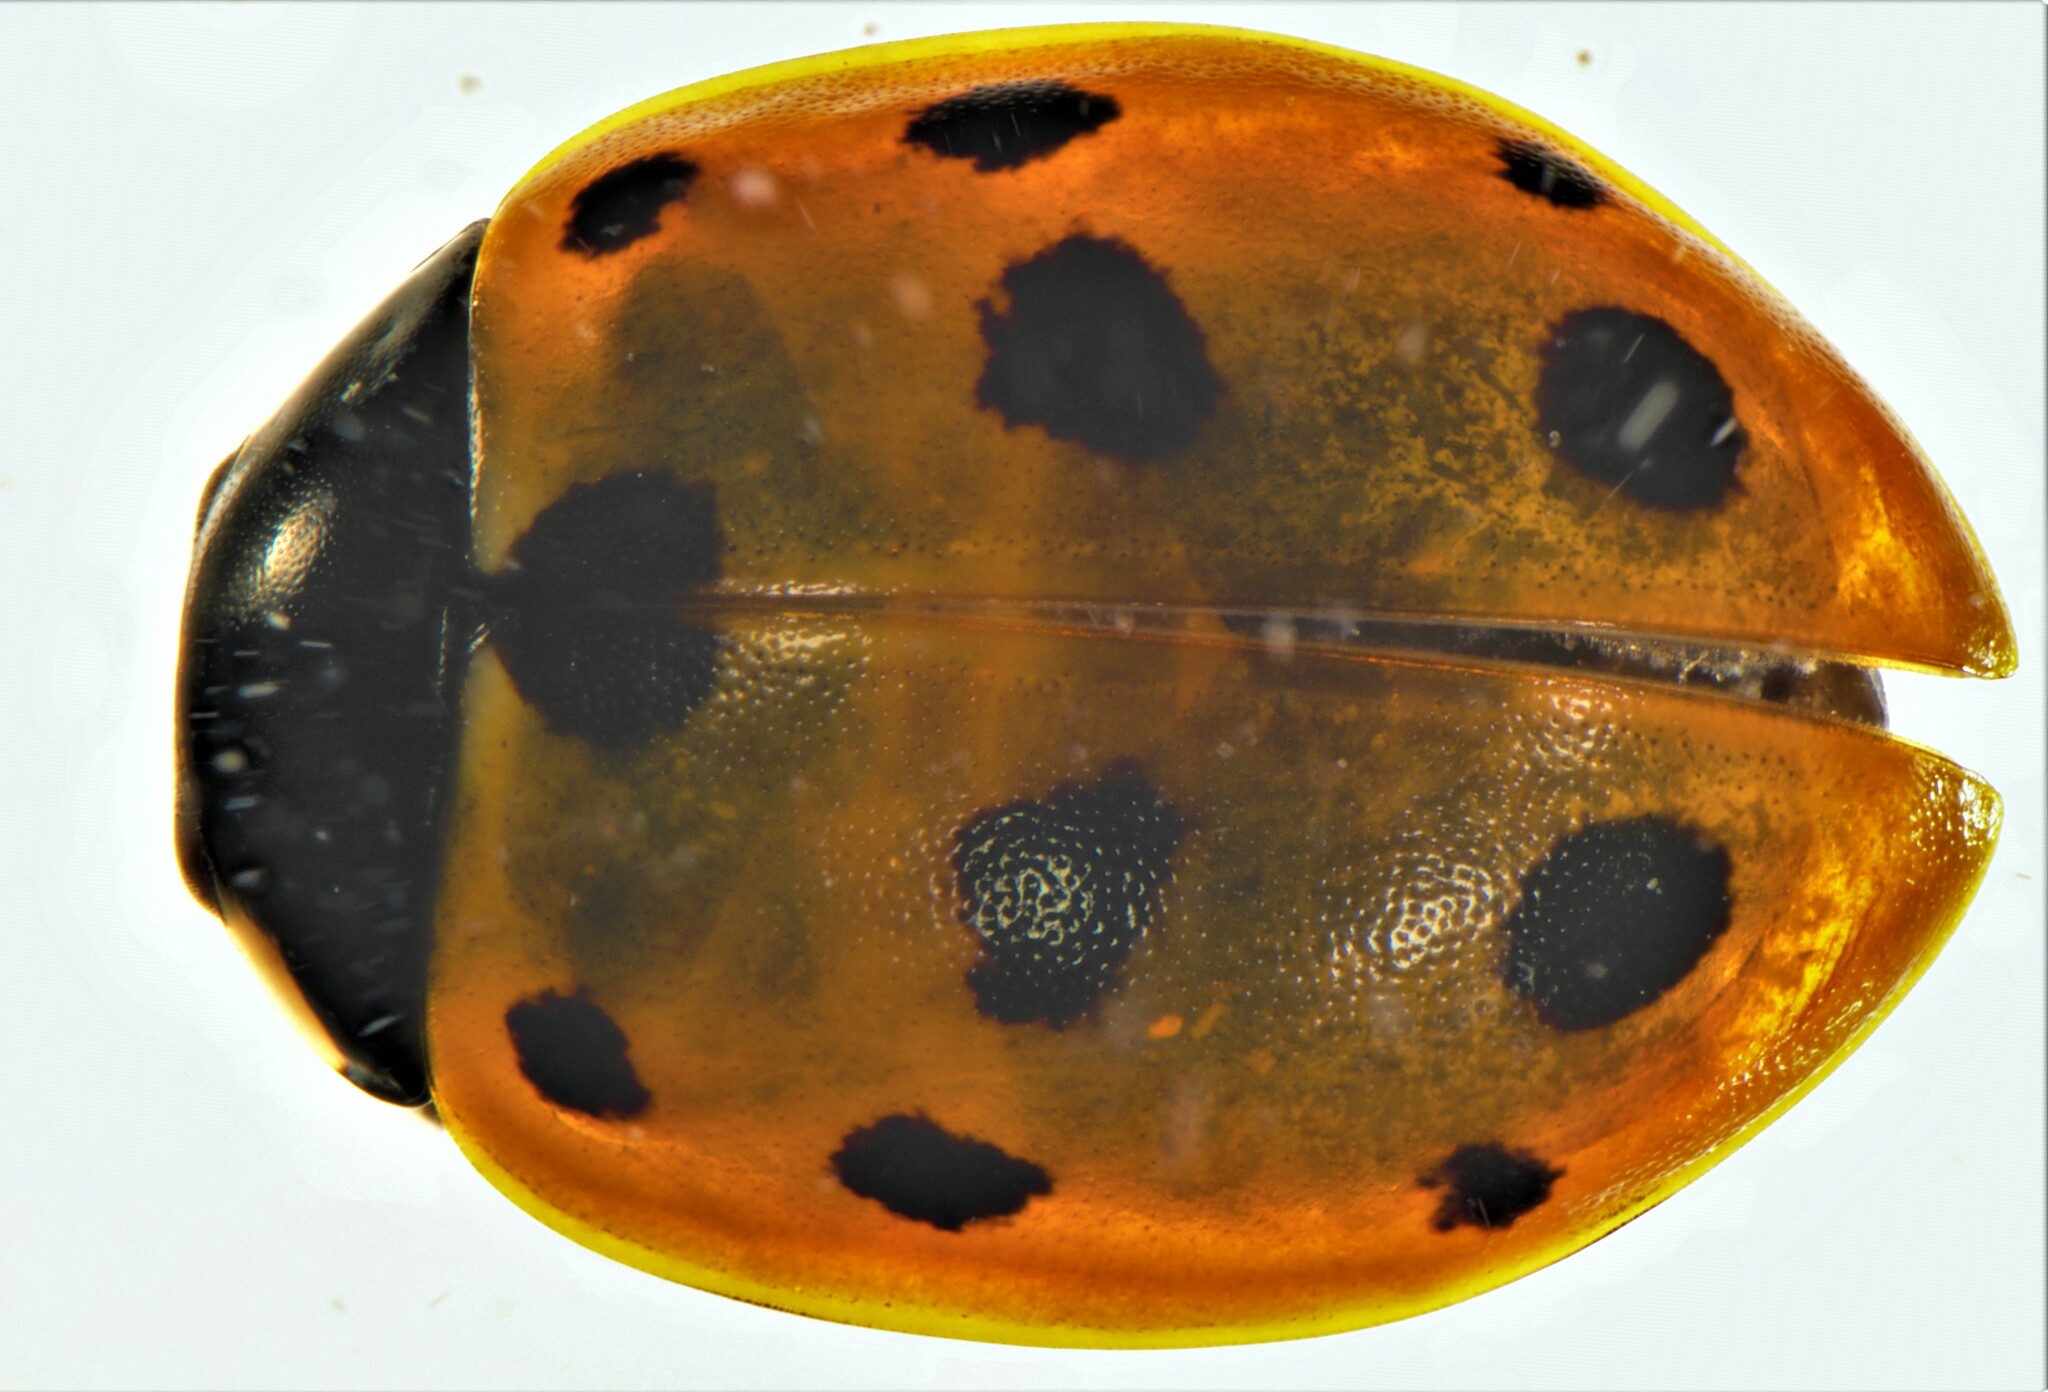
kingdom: Animalia
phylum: Arthropoda
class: Insecta
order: Coleoptera
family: Coccinellidae
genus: Coccinella
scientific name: Coccinella undecimpunctata
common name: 11-spot ladybird
